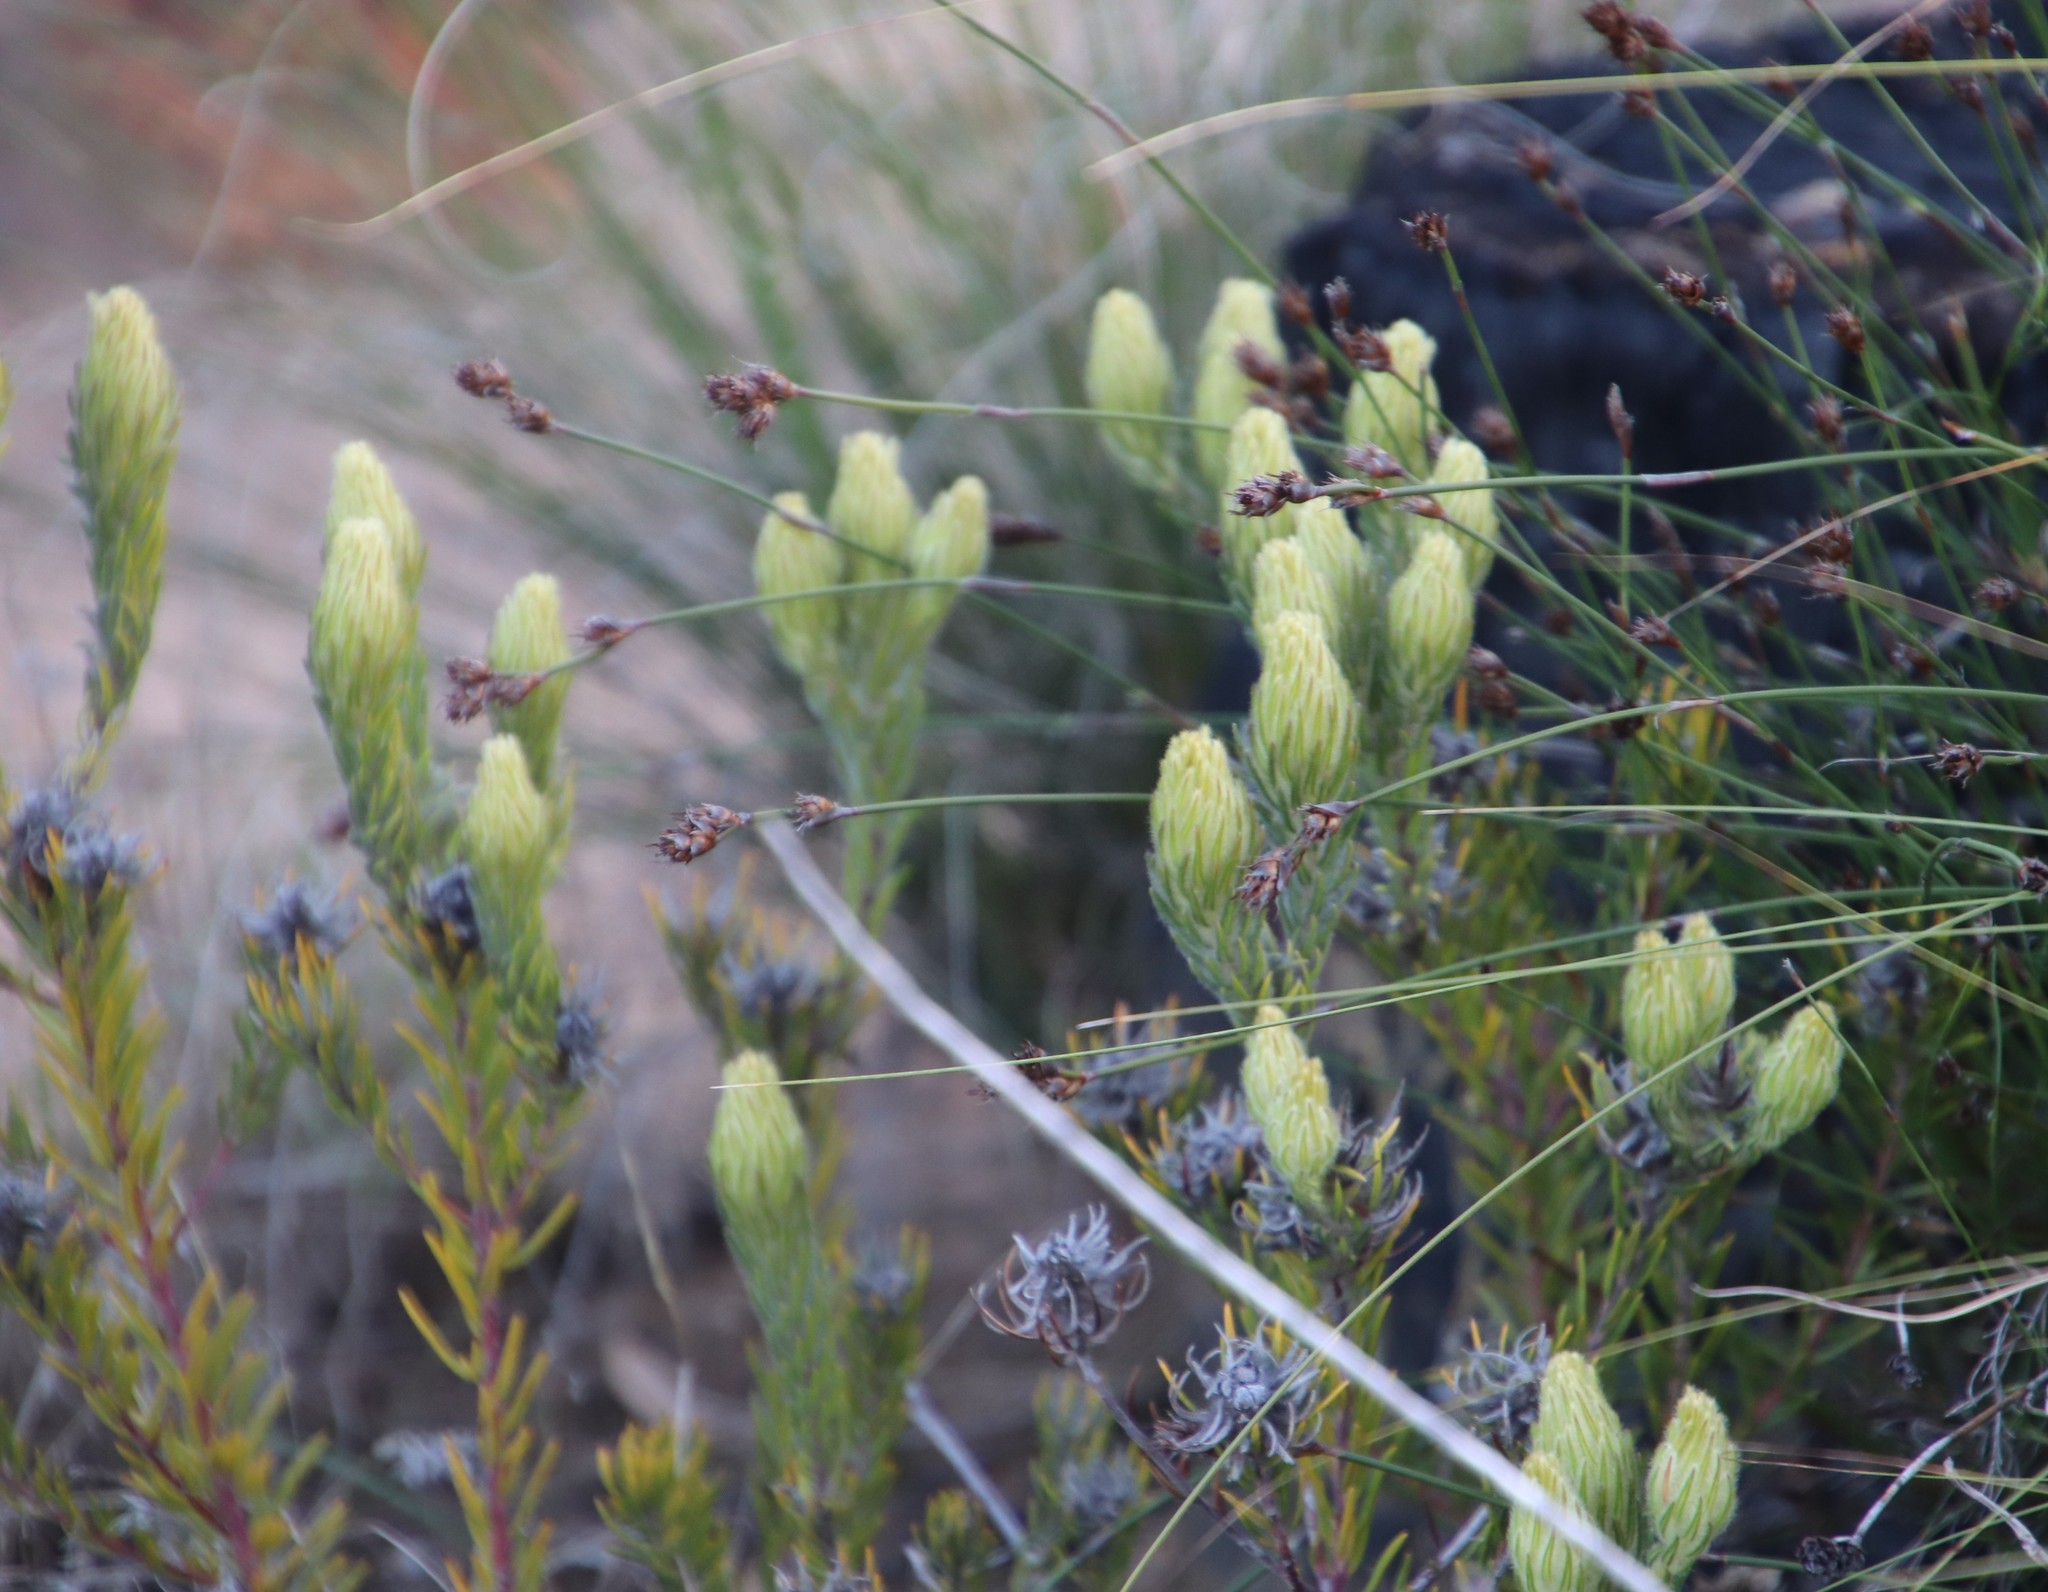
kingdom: Plantae
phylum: Tracheophyta
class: Magnoliopsida
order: Rosales
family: Rhamnaceae
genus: Phylica
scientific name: Phylica pubescens
